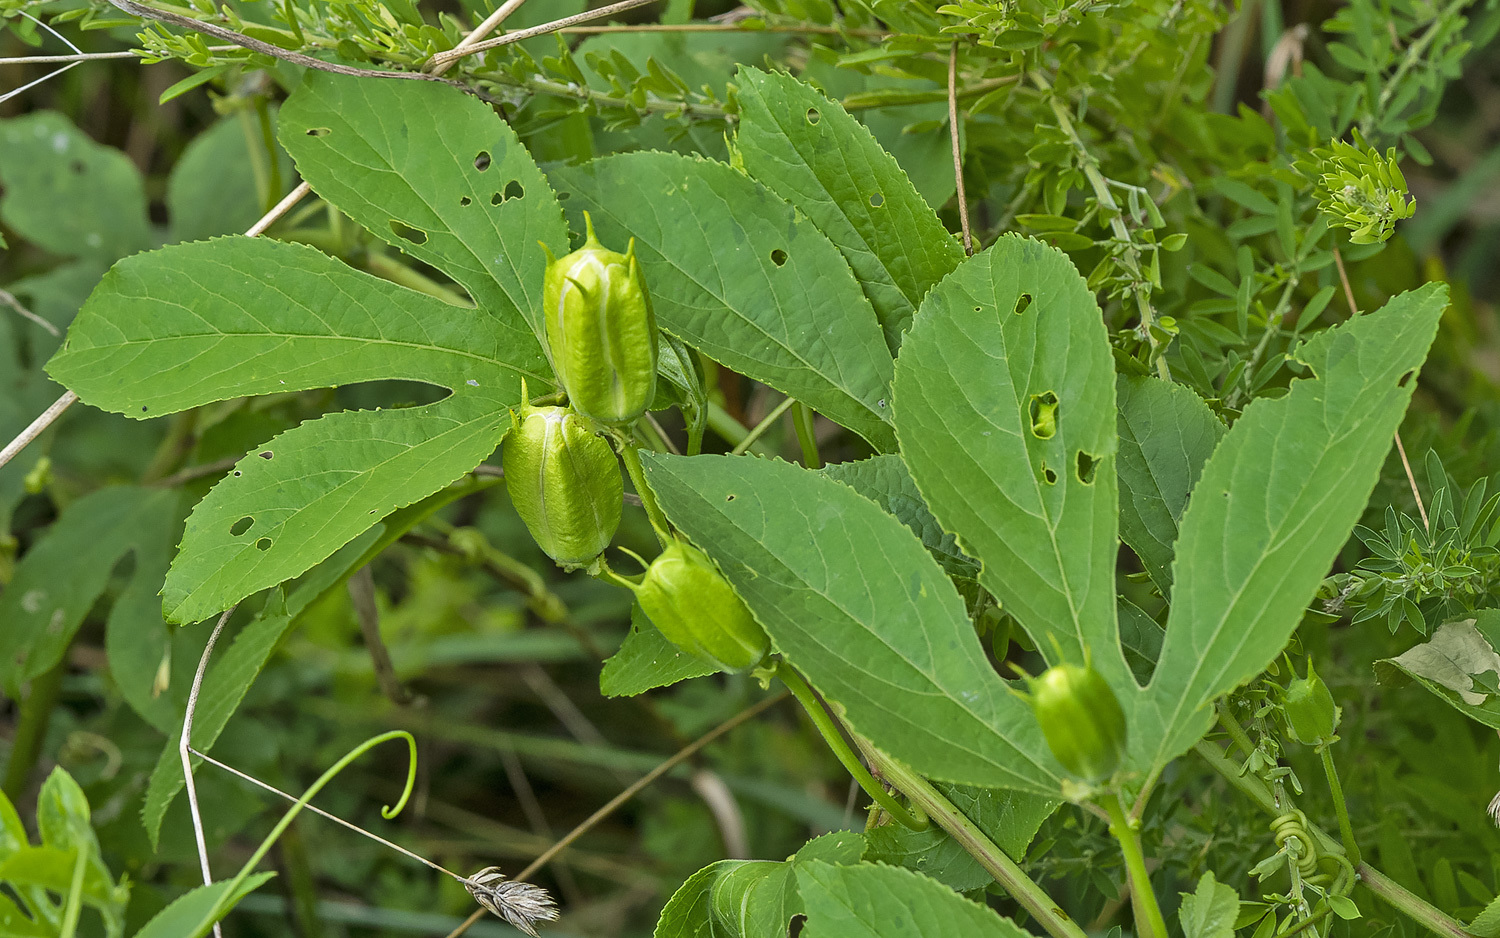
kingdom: Plantae
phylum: Tracheophyta
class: Magnoliopsida
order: Malpighiales
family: Passifloraceae
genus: Passiflora
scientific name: Passiflora incarnata
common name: Apricot-vine
